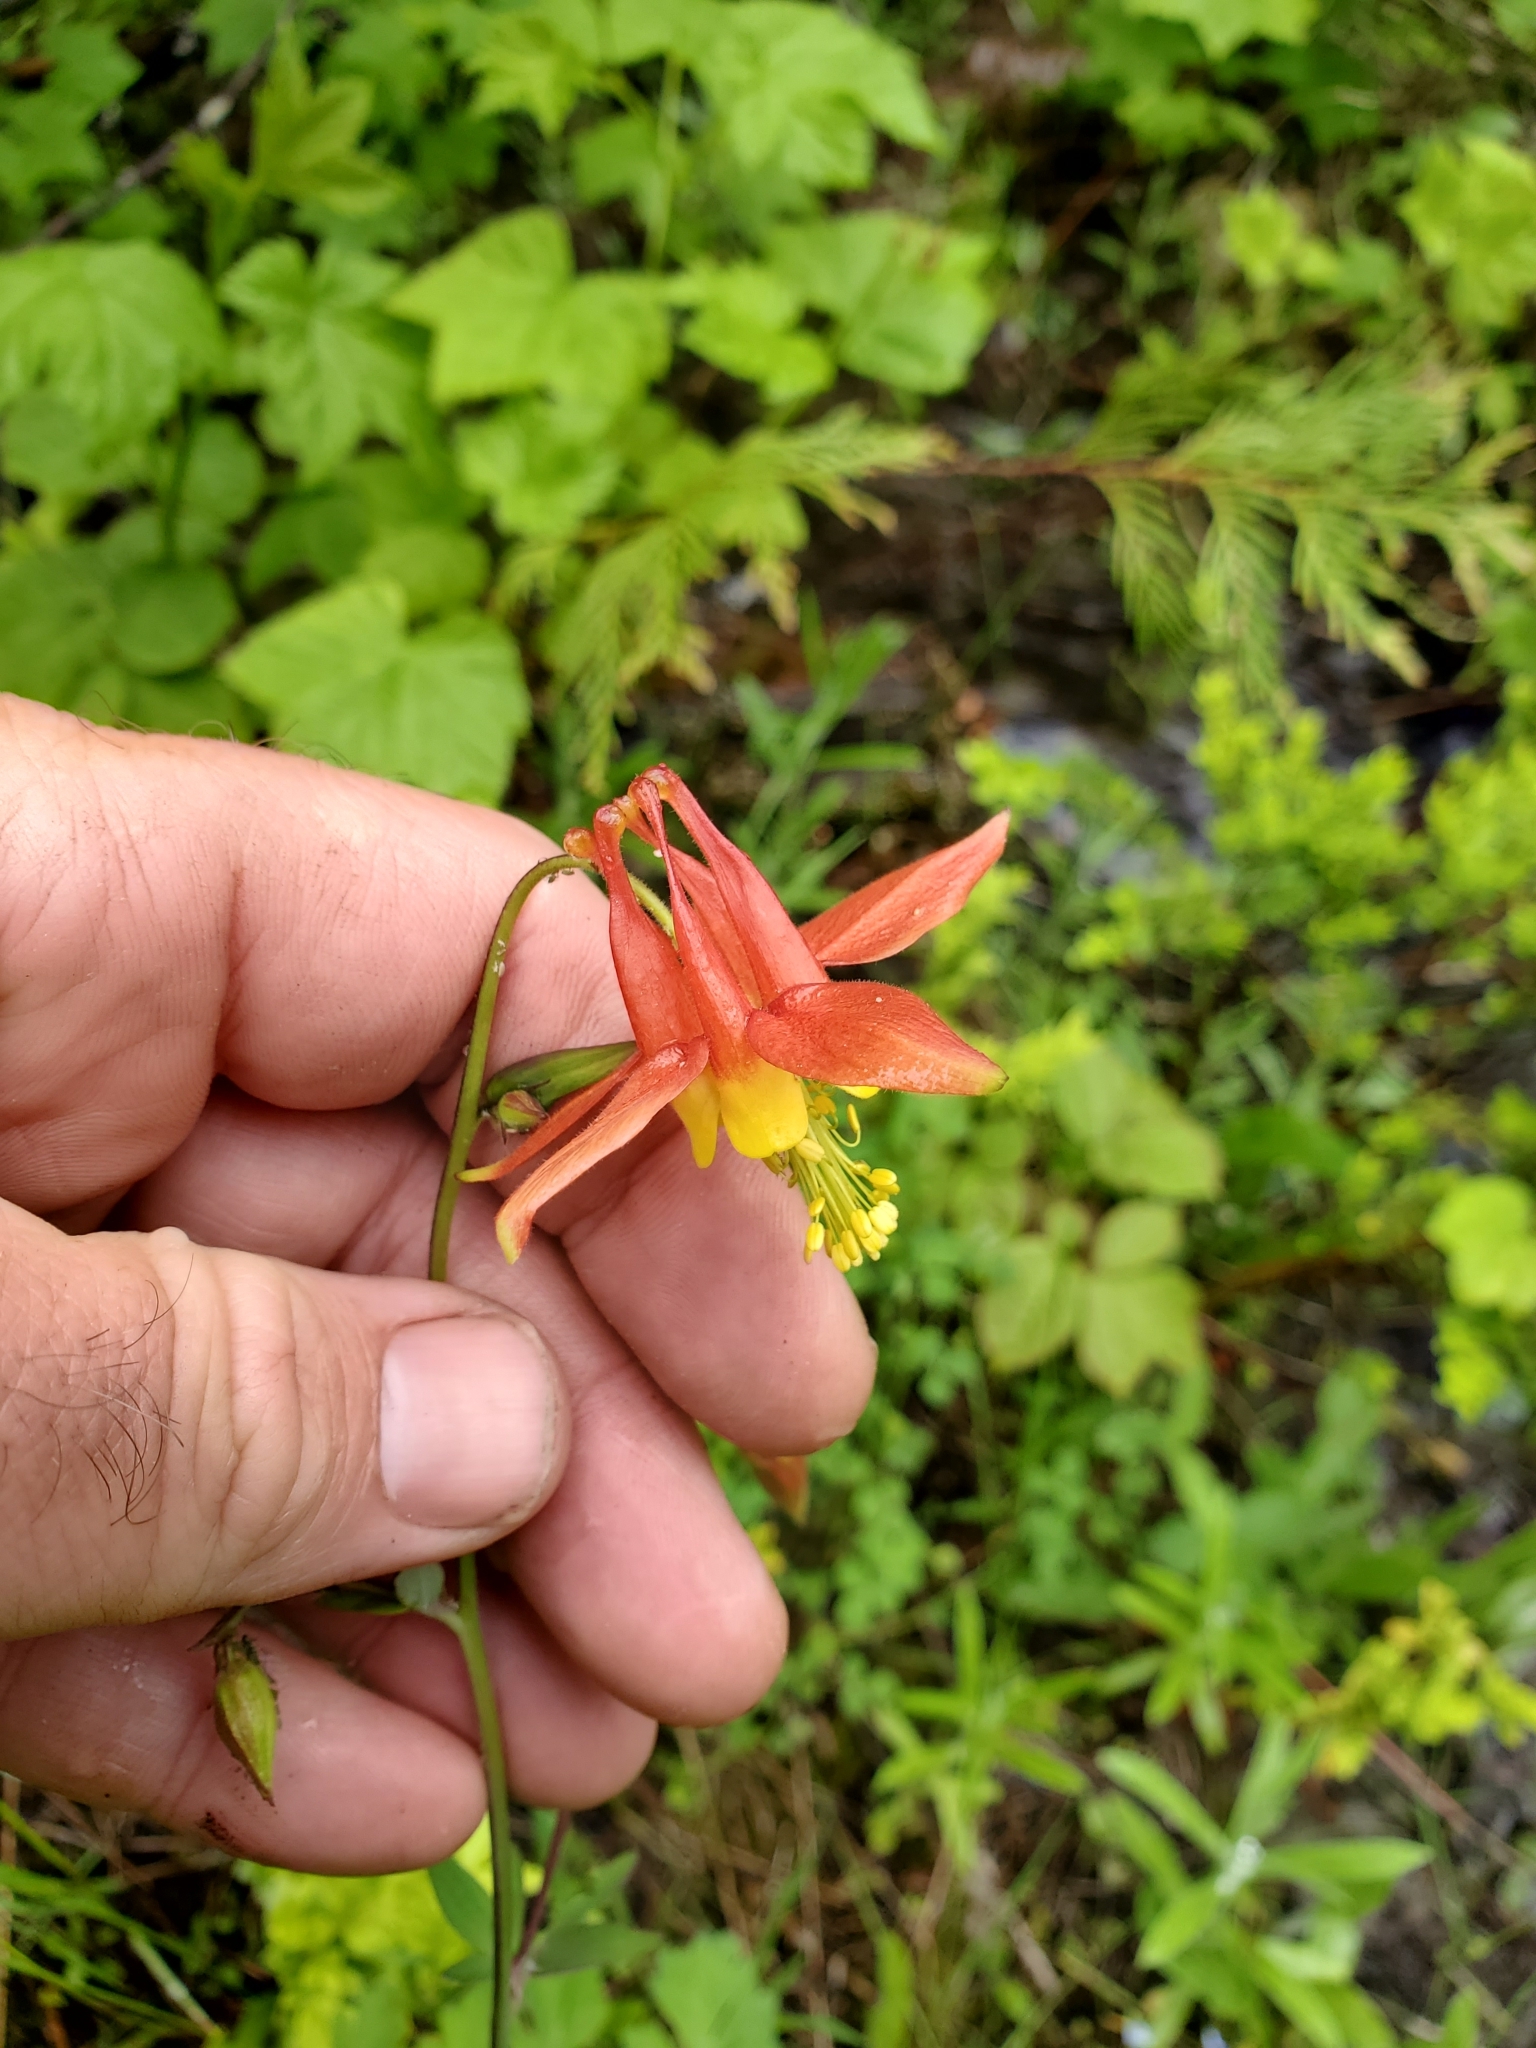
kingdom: Plantae
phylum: Tracheophyta
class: Magnoliopsida
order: Ranunculales
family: Ranunculaceae
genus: Aquilegia
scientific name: Aquilegia formosa
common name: Sitka columbine
